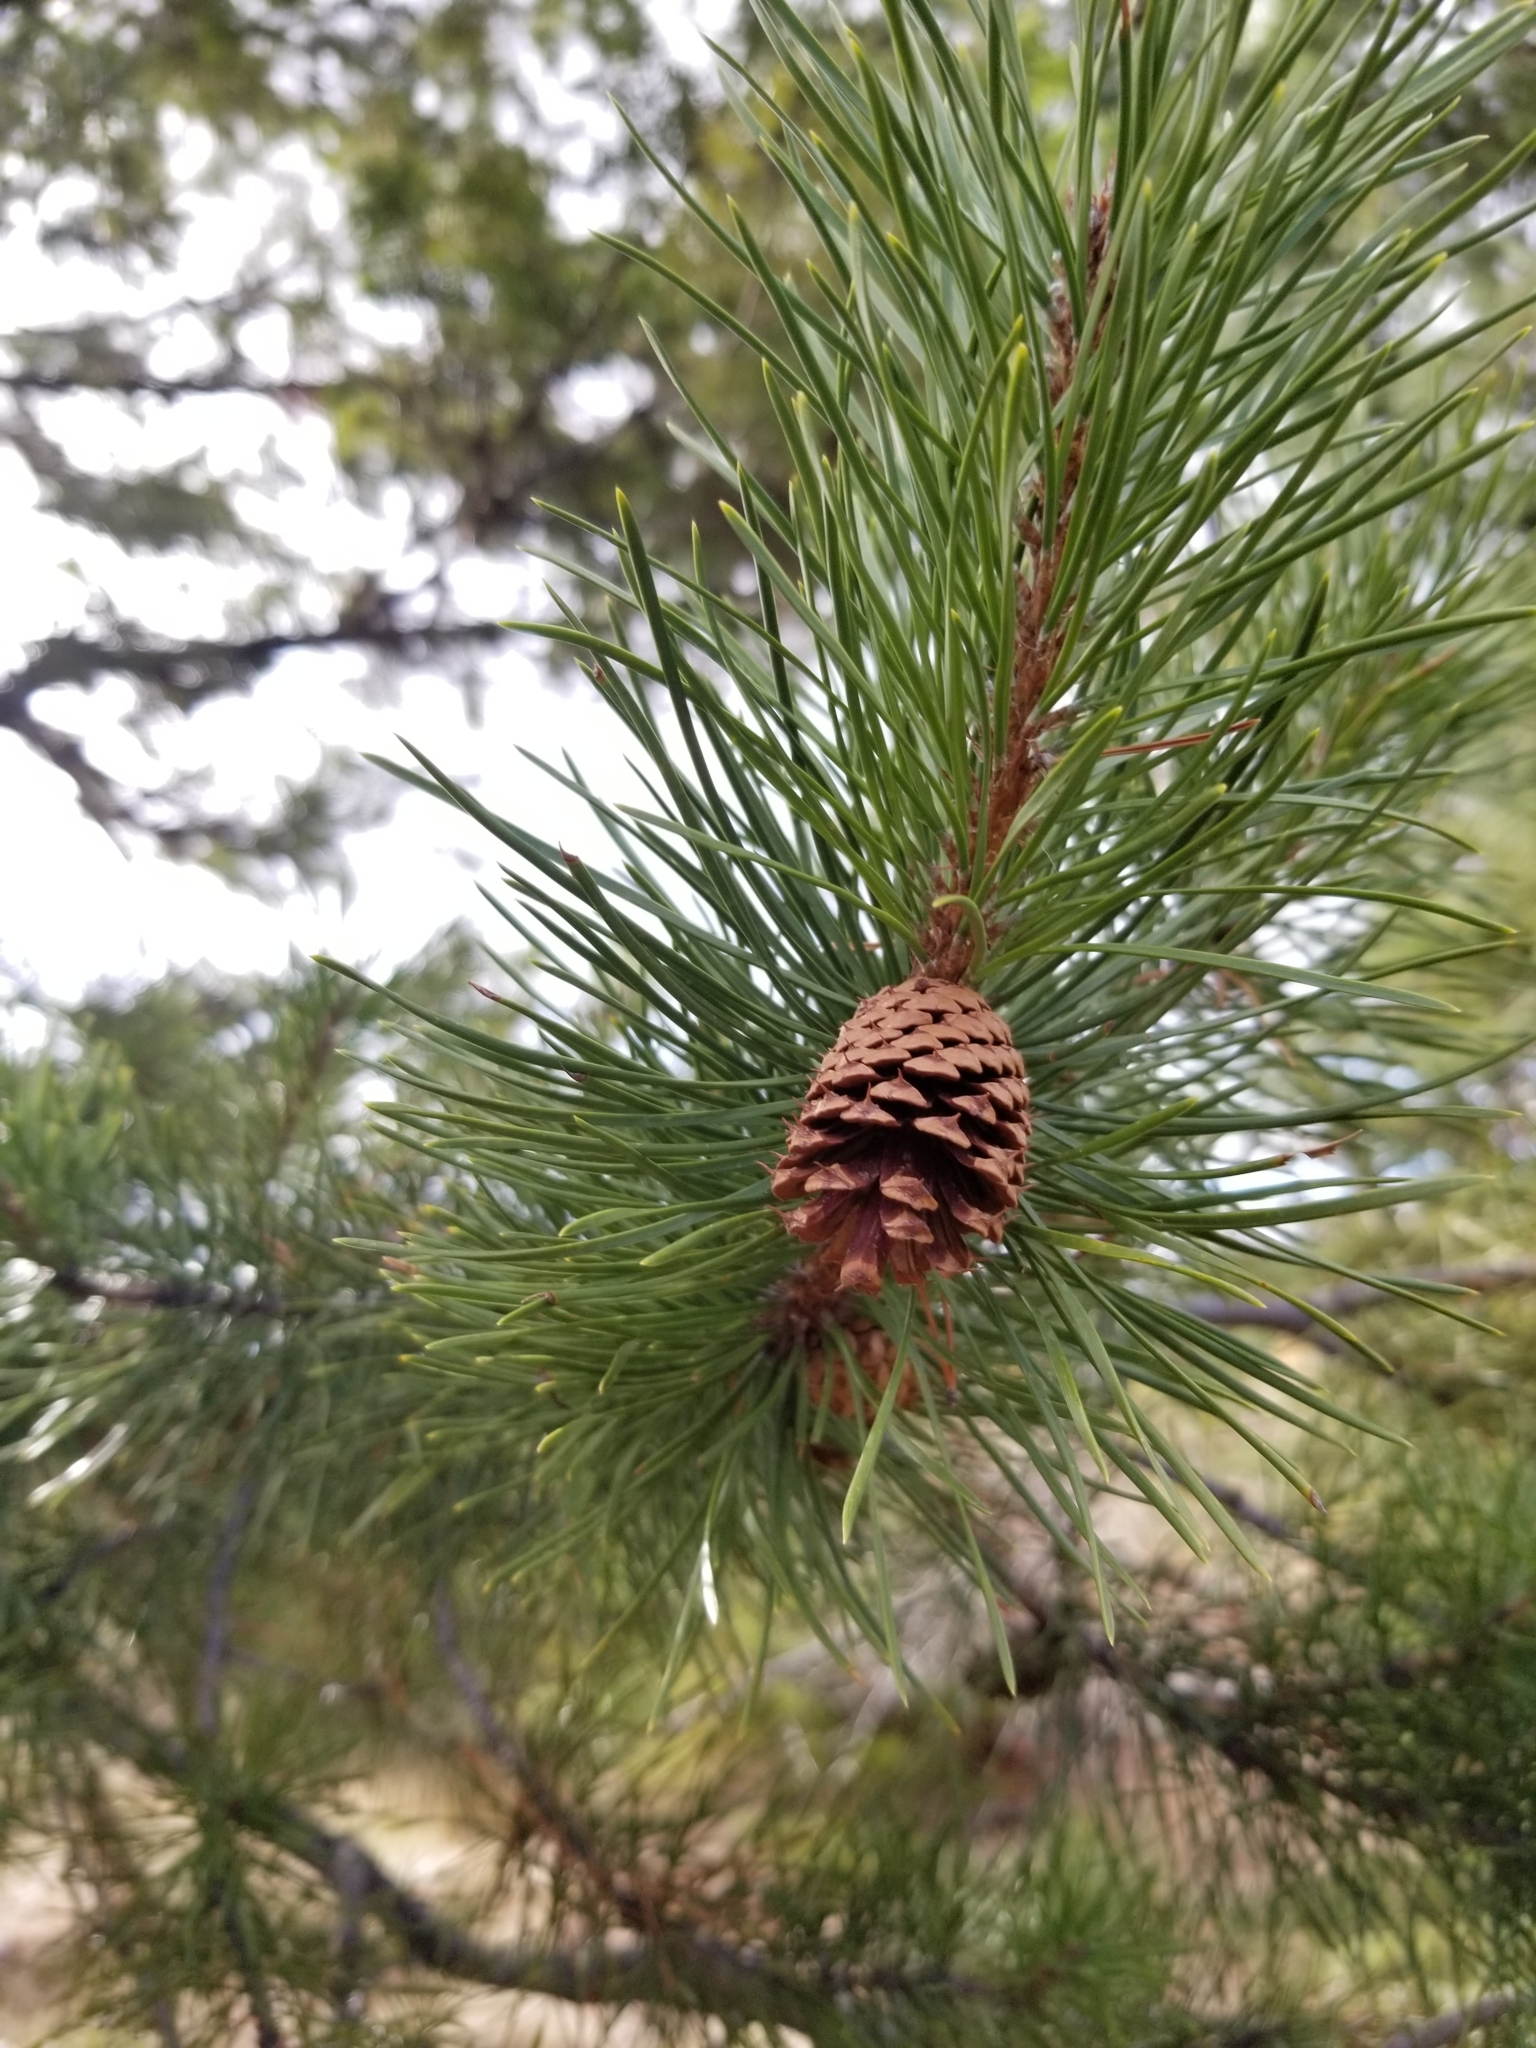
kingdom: Plantae
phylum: Tracheophyta
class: Pinopsida
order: Pinales
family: Pinaceae
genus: Pinus
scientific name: Pinus contorta
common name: Lodgepole pine
